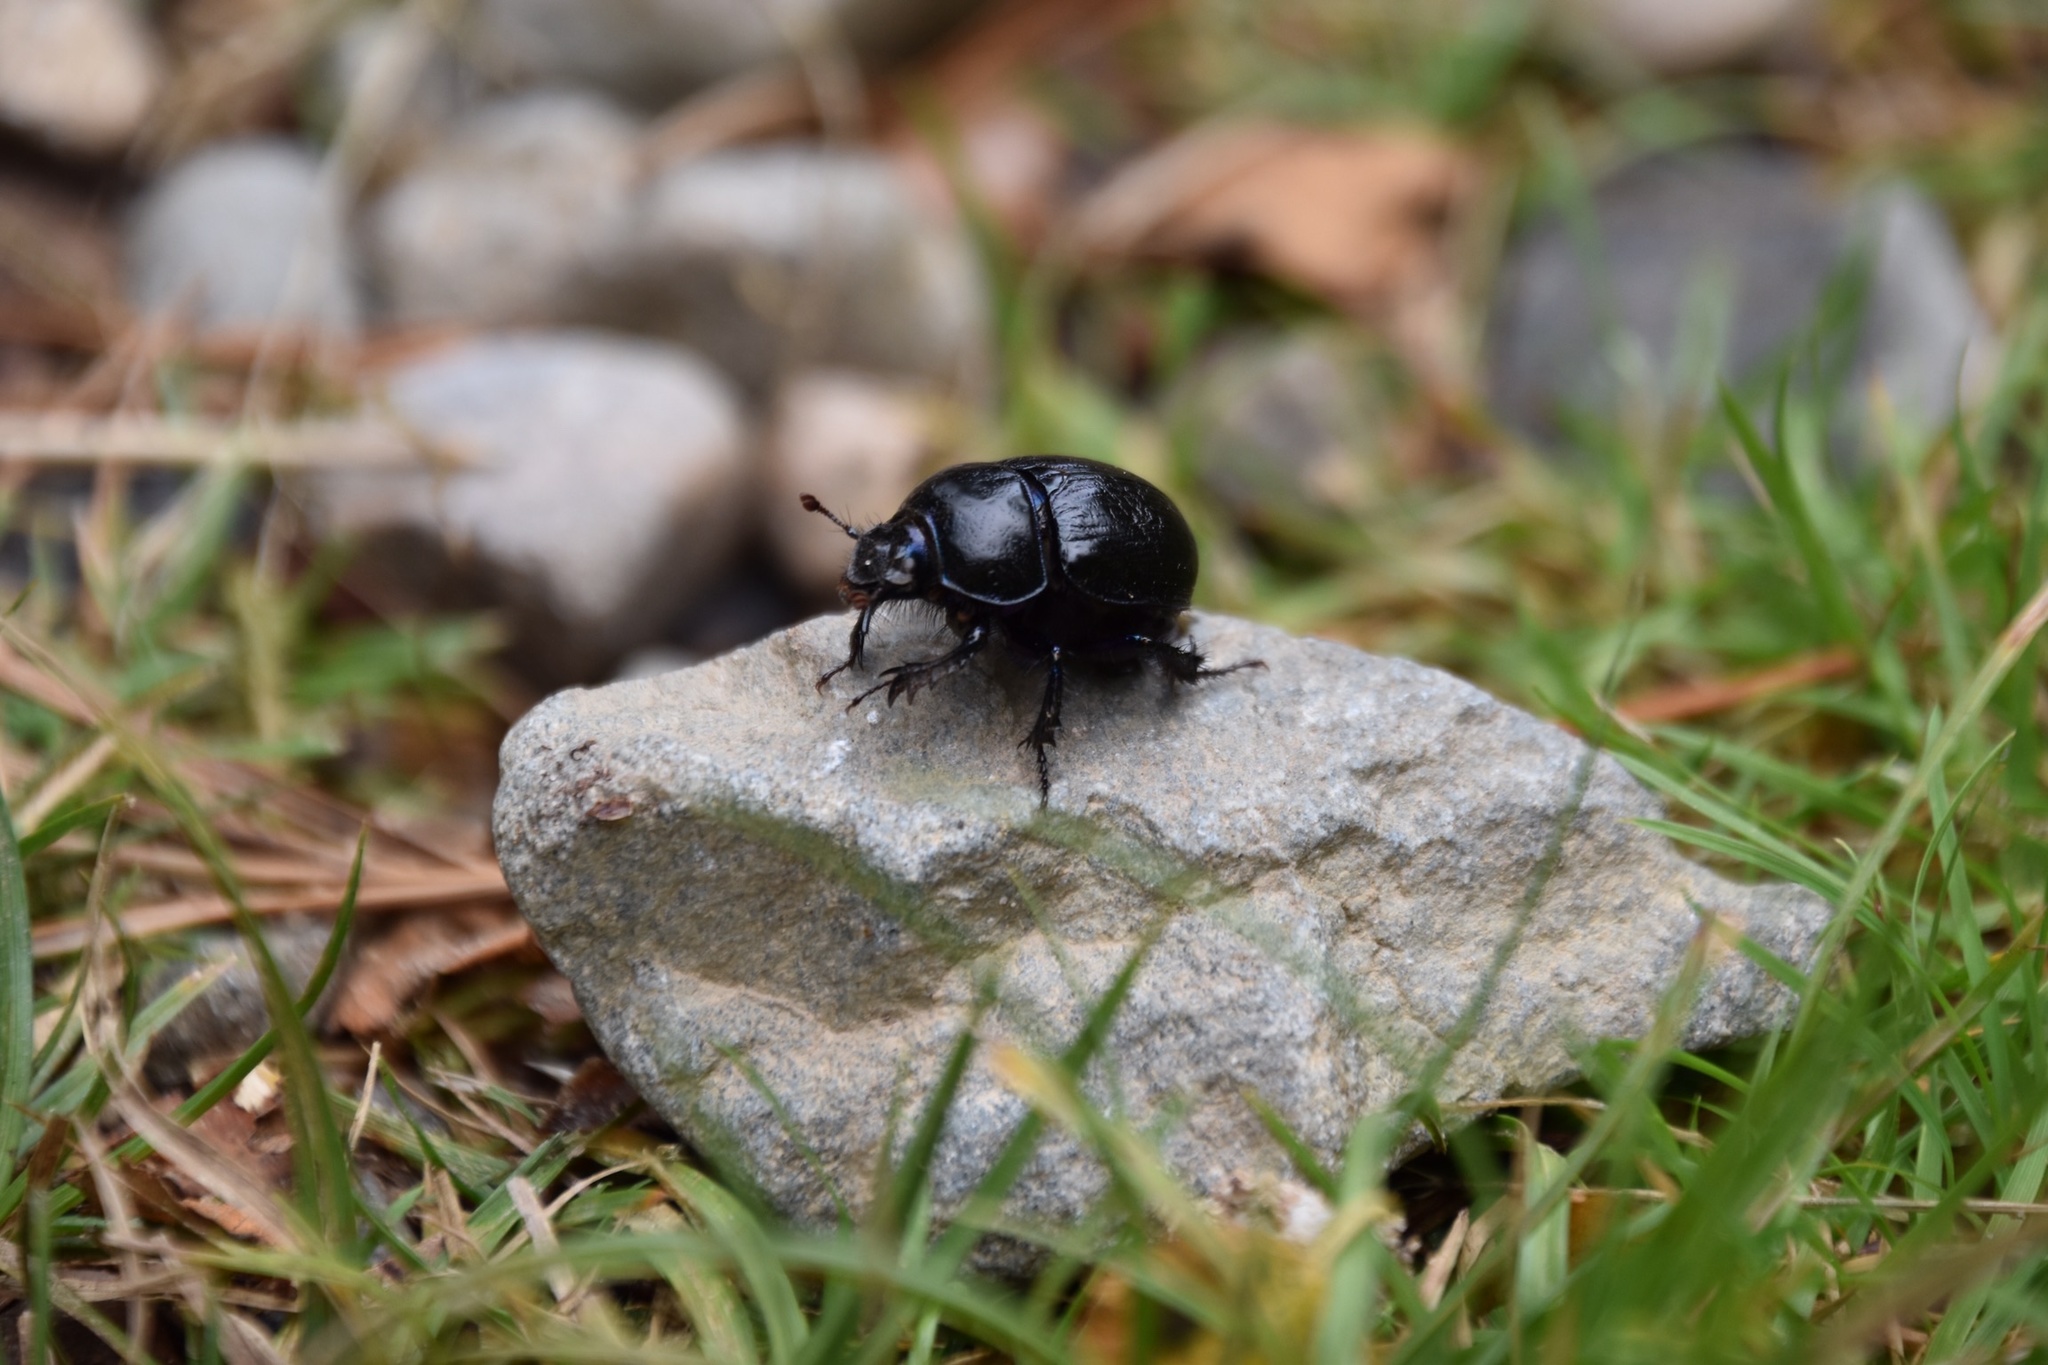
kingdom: Animalia
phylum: Arthropoda
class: Insecta
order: Coleoptera
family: Geotrupidae
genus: Anoplotrupes
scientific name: Anoplotrupes stercorosus
